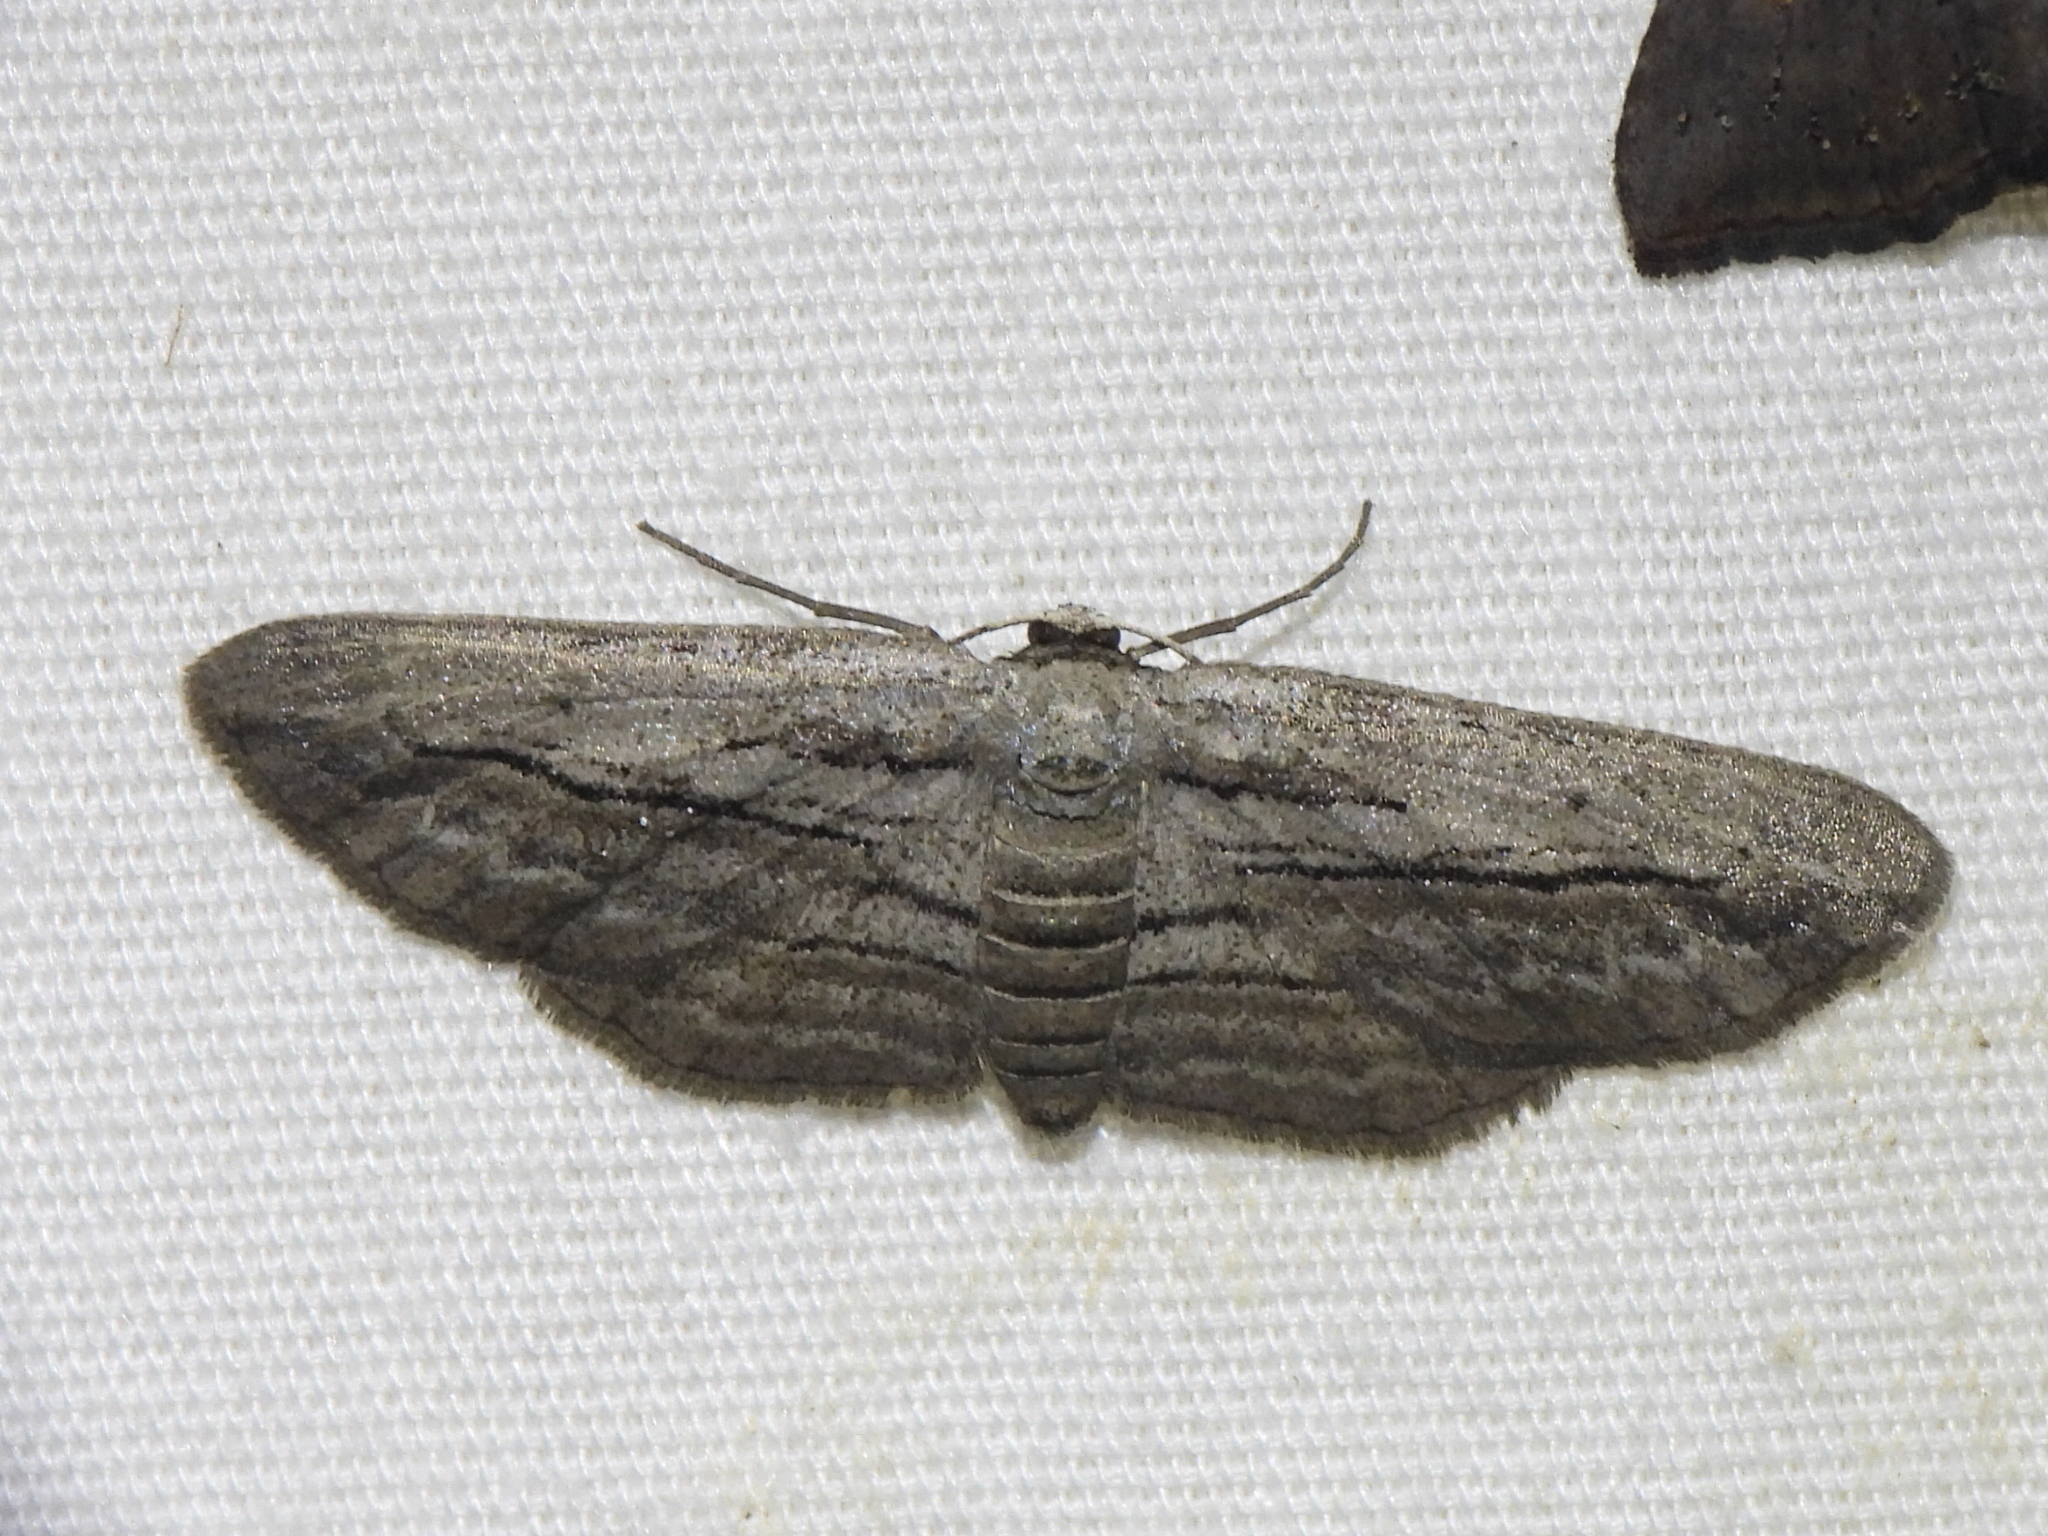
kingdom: Animalia
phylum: Arthropoda
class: Insecta
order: Lepidoptera
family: Geometridae
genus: Glena
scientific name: Glena quinquelinearia
